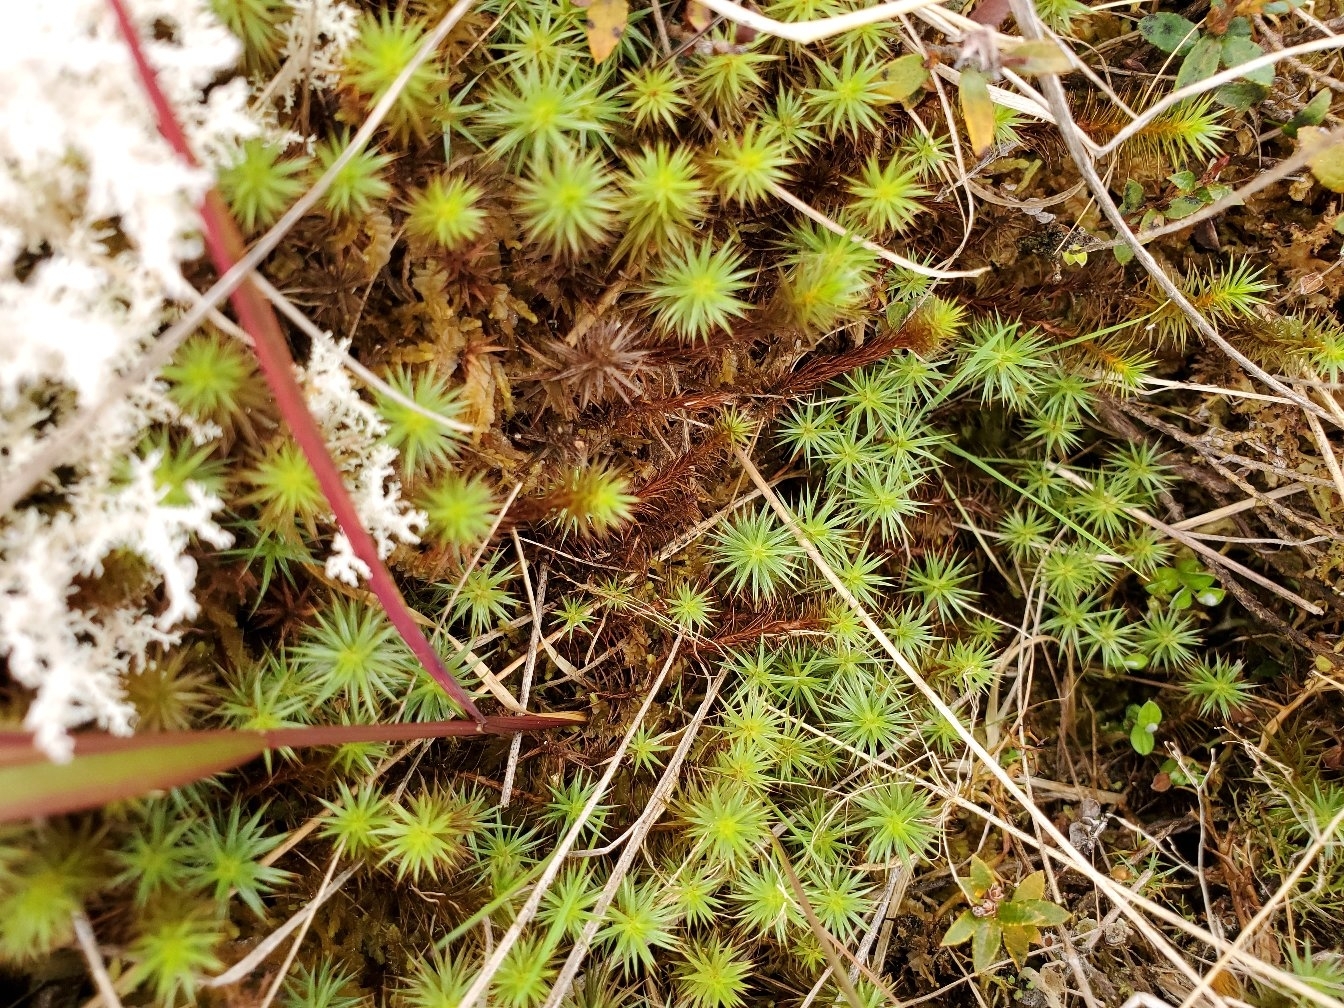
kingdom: Plantae
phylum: Bryophyta
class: Polytrichopsida
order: Polytrichales
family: Polytrichaceae
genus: Polytrichum
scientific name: Polytrichum juniperinum
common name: Juniper haircap moss
